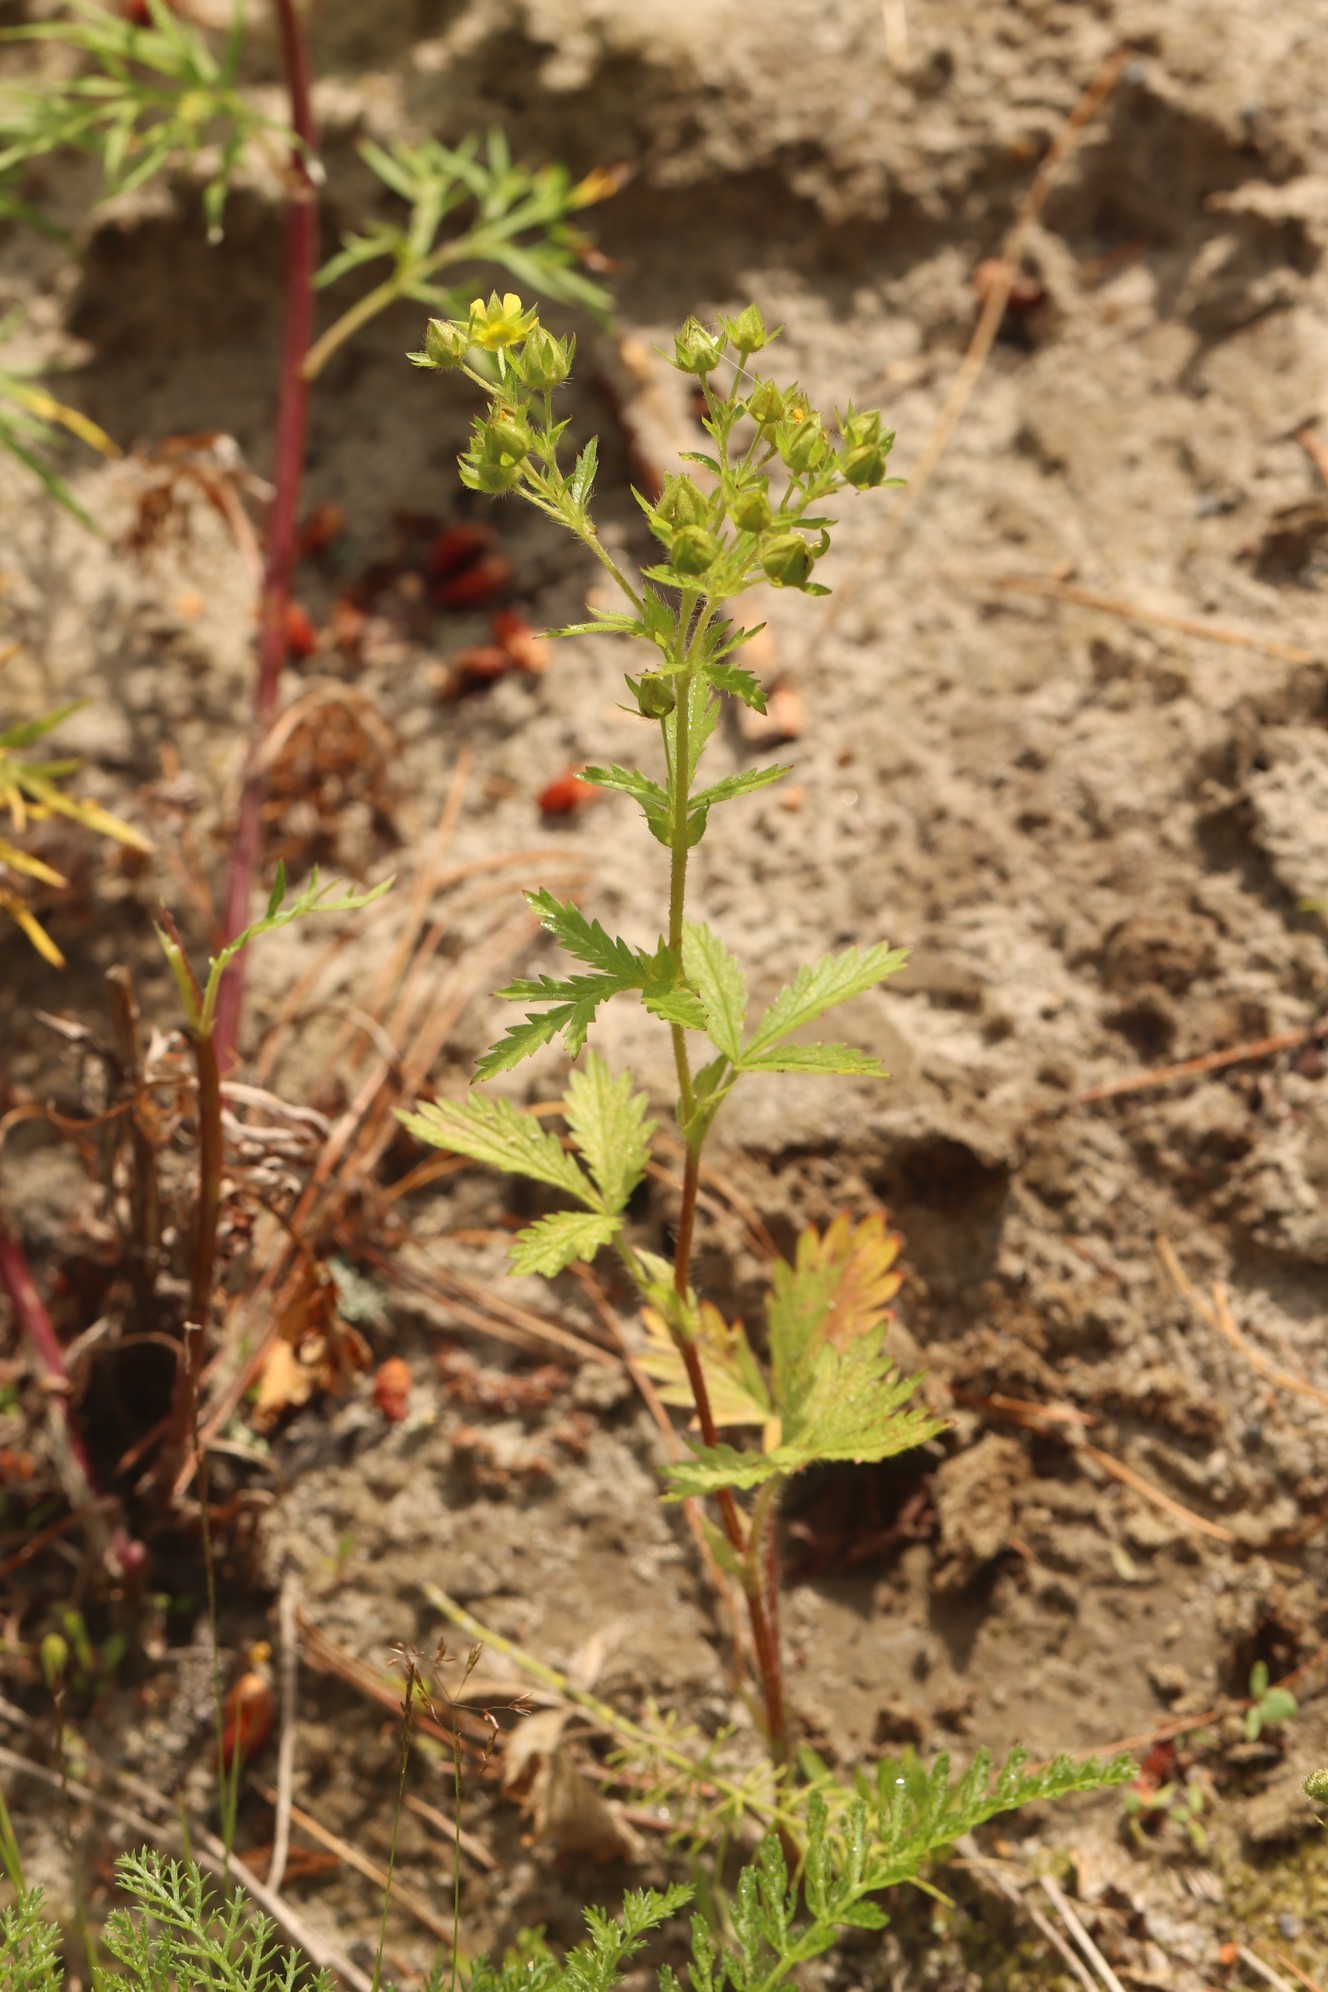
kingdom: Plantae
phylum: Tracheophyta
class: Magnoliopsida
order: Rosales
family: Rosaceae
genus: Potentilla
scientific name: Potentilla norvegica
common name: Ternate-leaved cinquefoil
